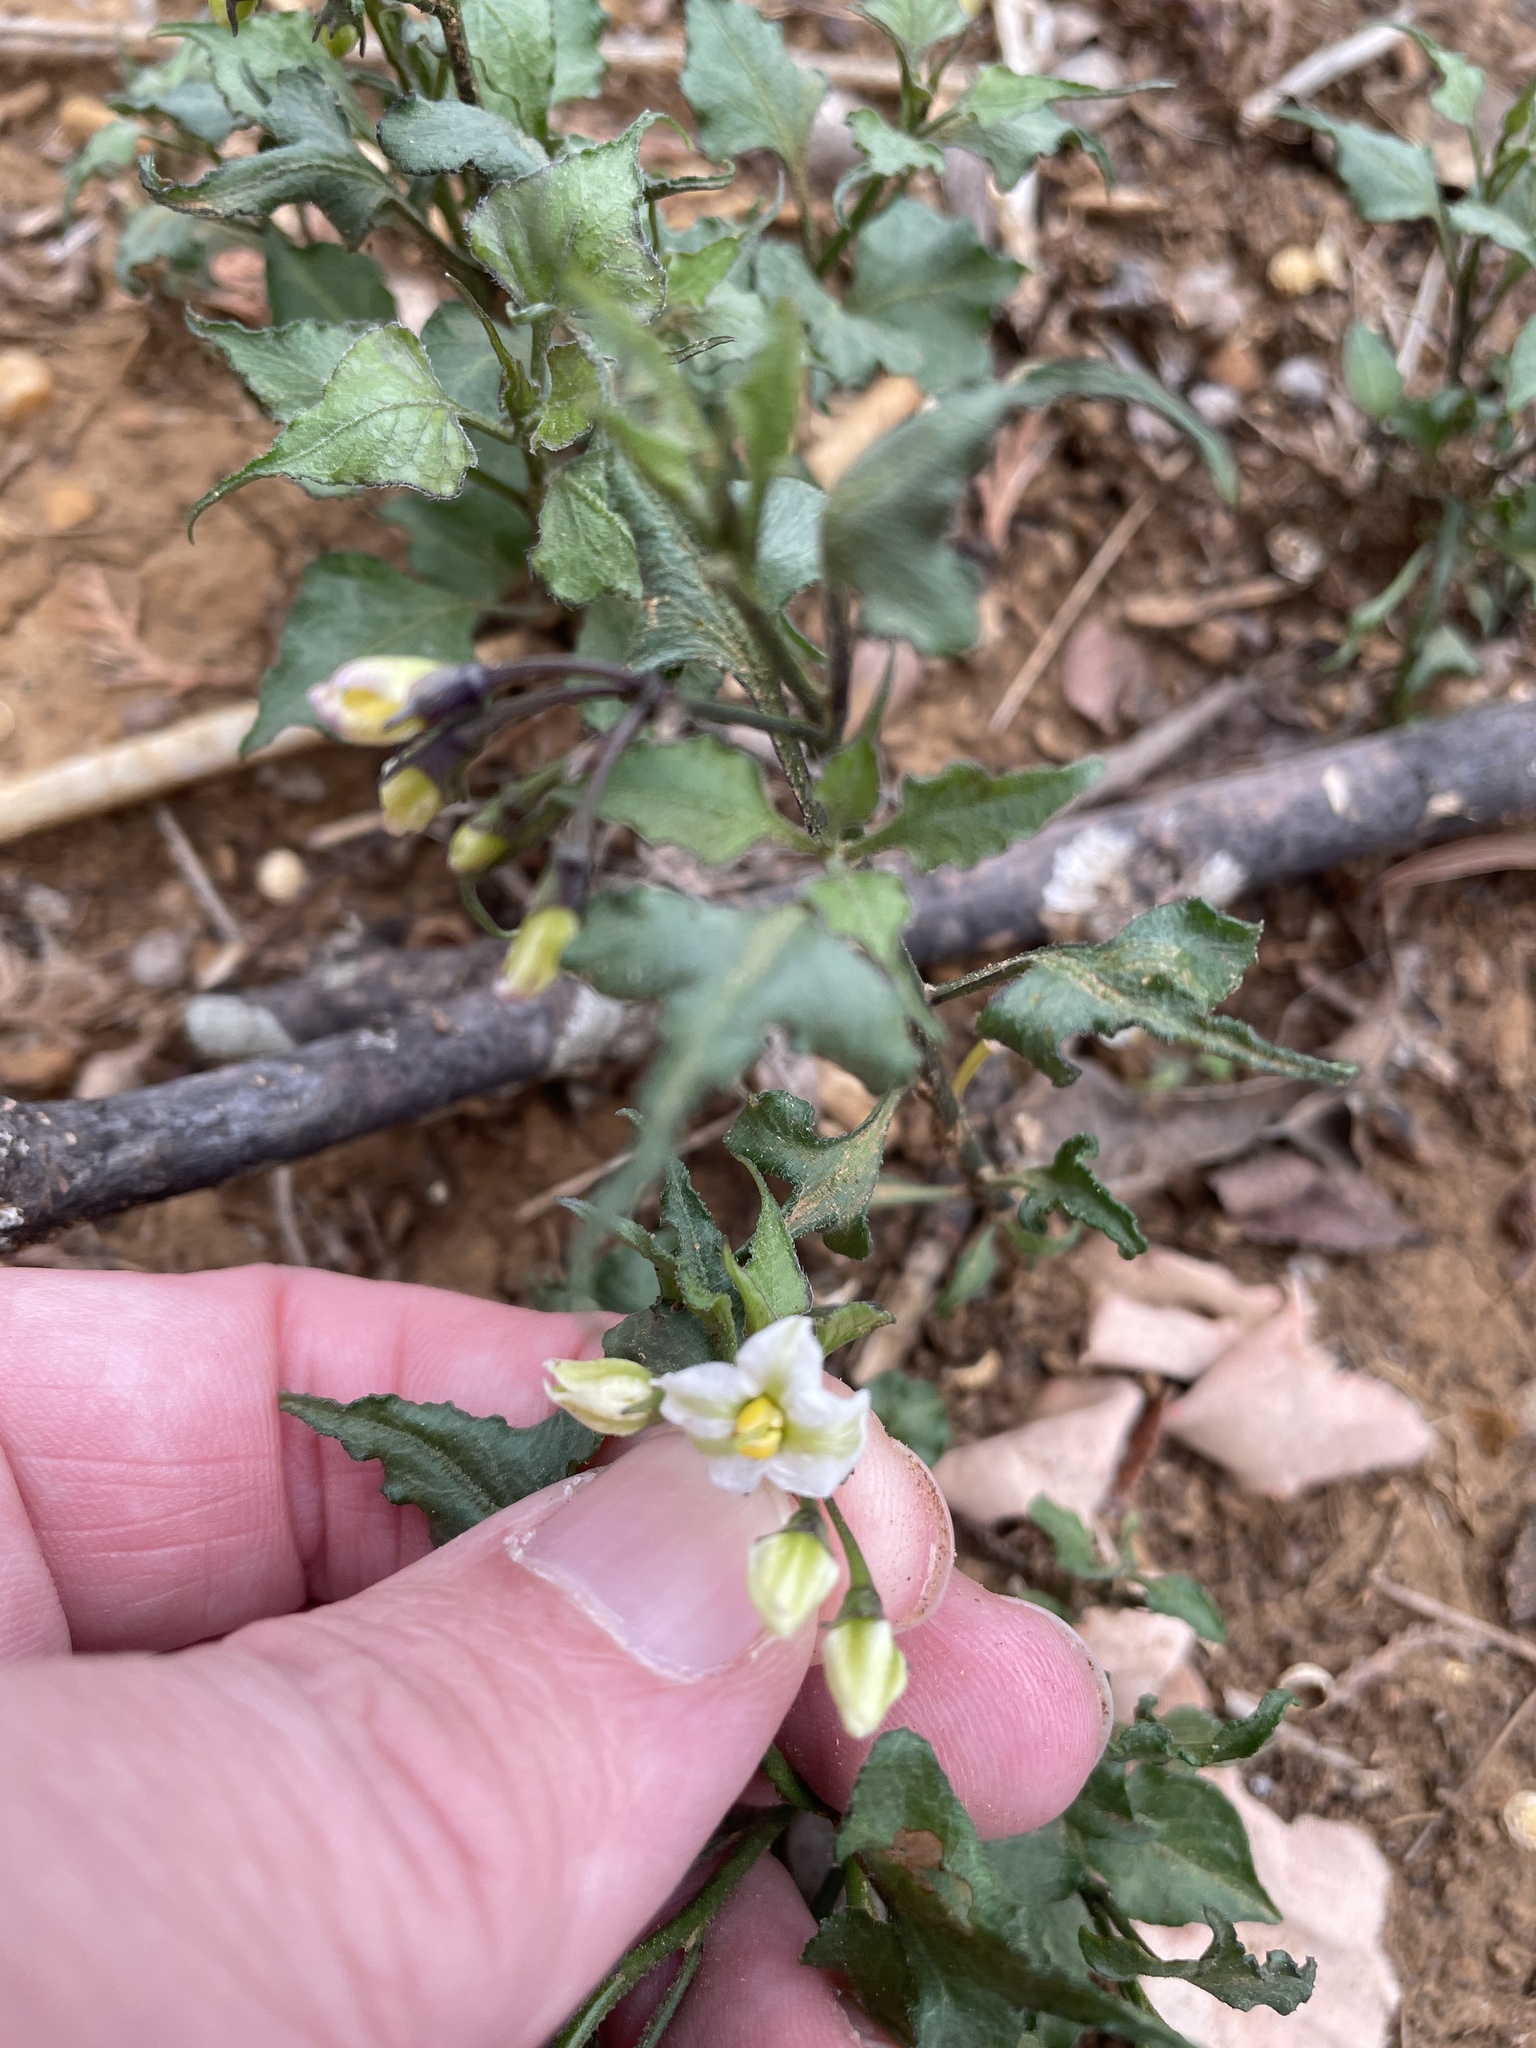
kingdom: Plantae
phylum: Tracheophyta
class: Magnoliopsida
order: Solanales
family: Solanaceae
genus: Solanum
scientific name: Solanum triquetrum
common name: Texas nightshade
